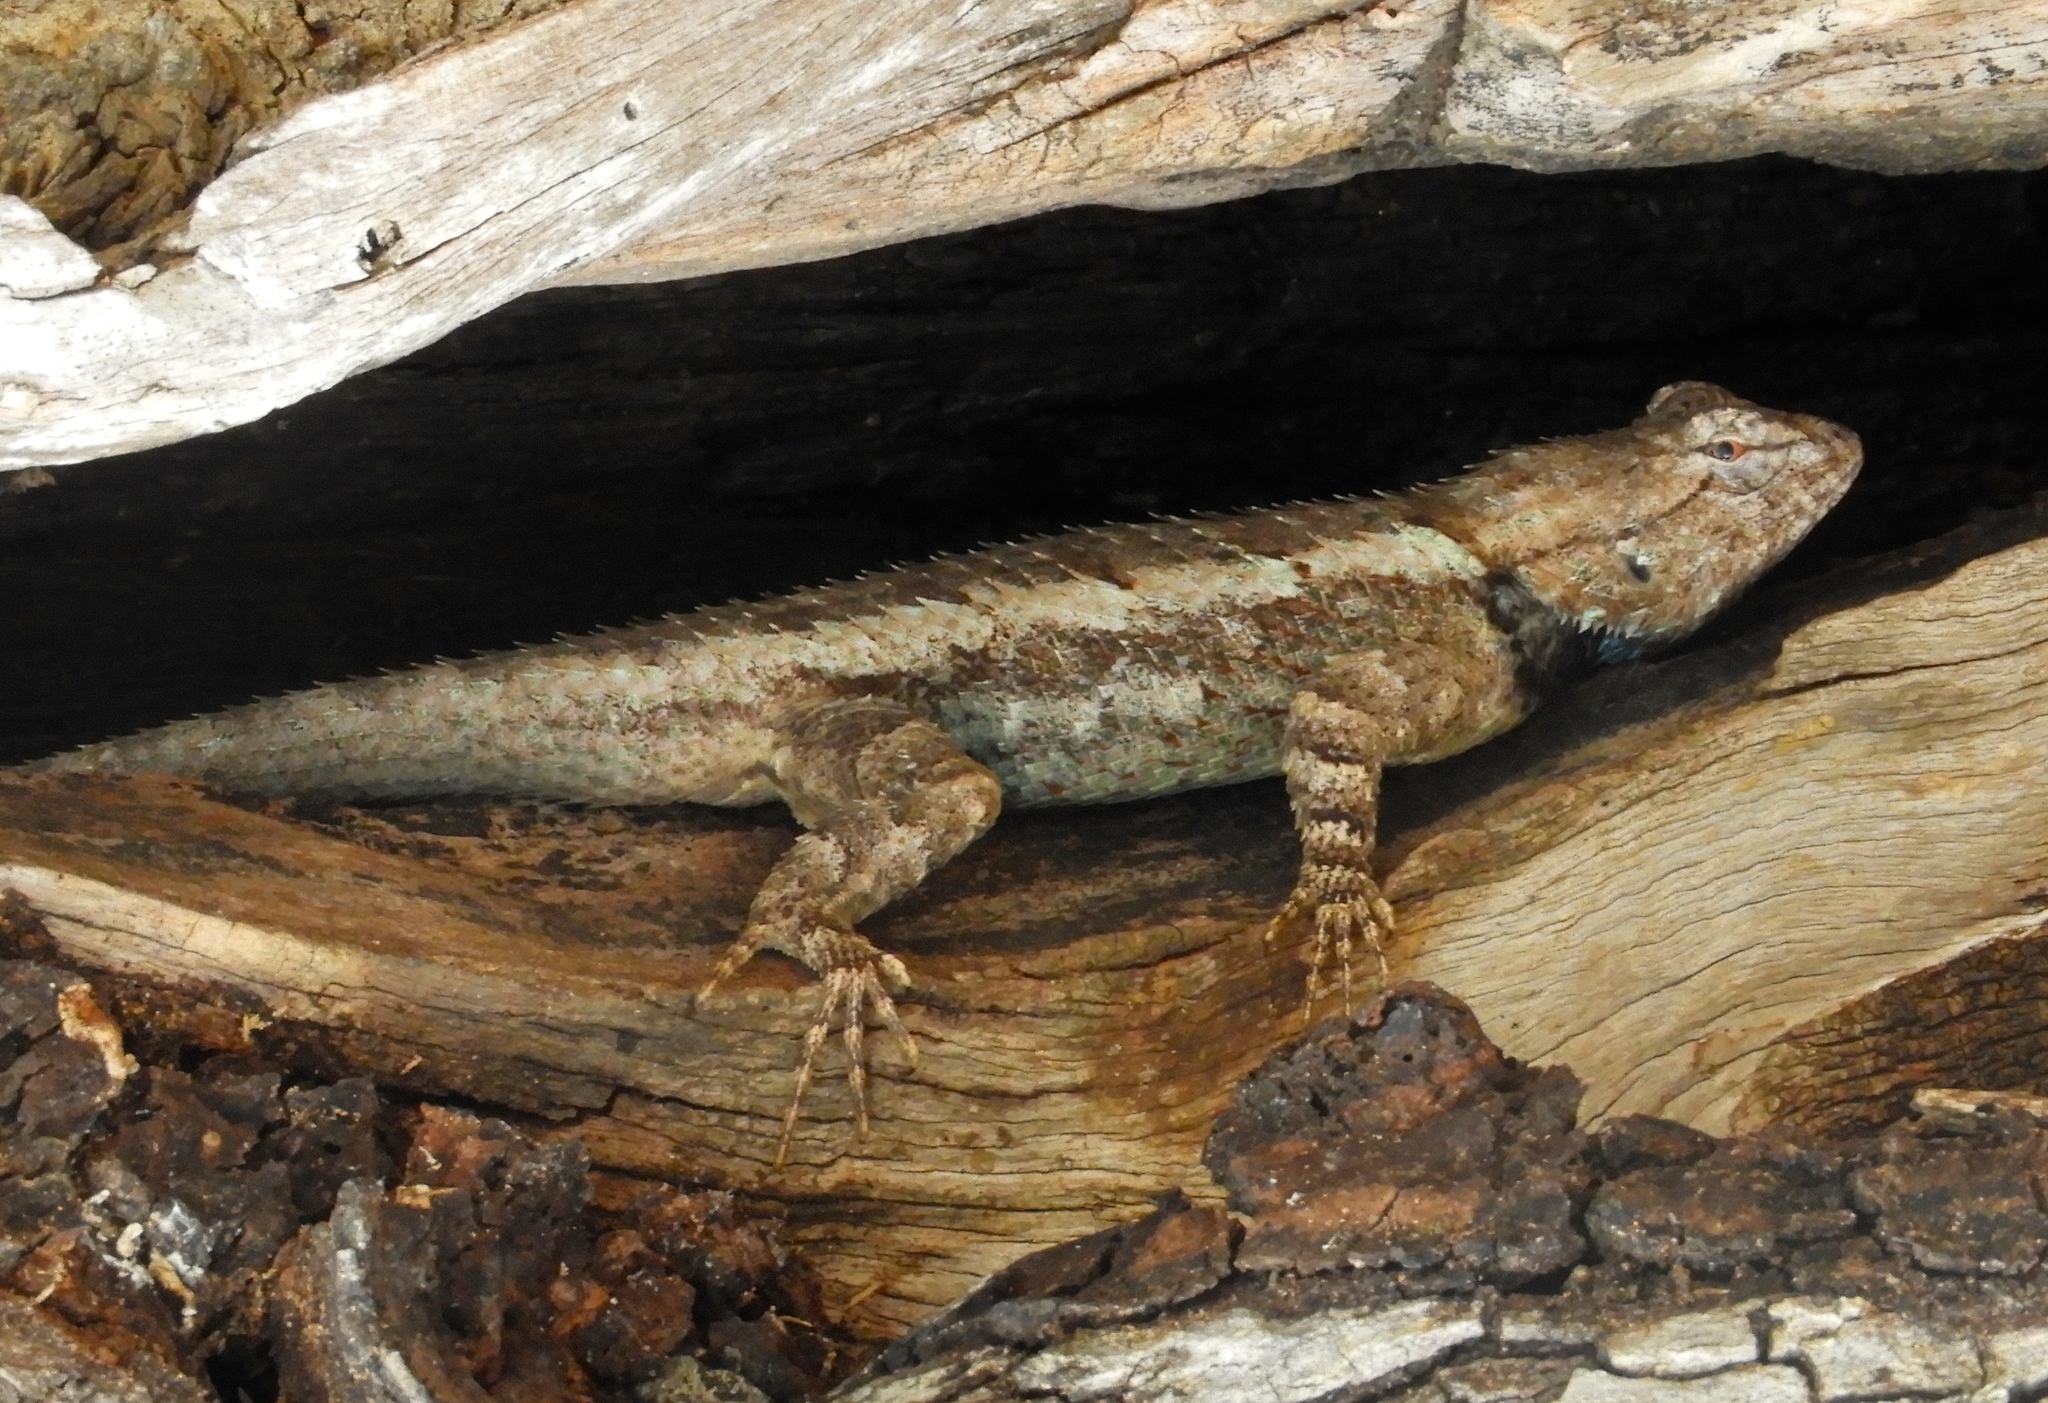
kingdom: Animalia
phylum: Chordata
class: Squamata
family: Phrynosomatidae
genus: Sceloporus
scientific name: Sceloporus clarkii
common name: Clark's spiny lizard
